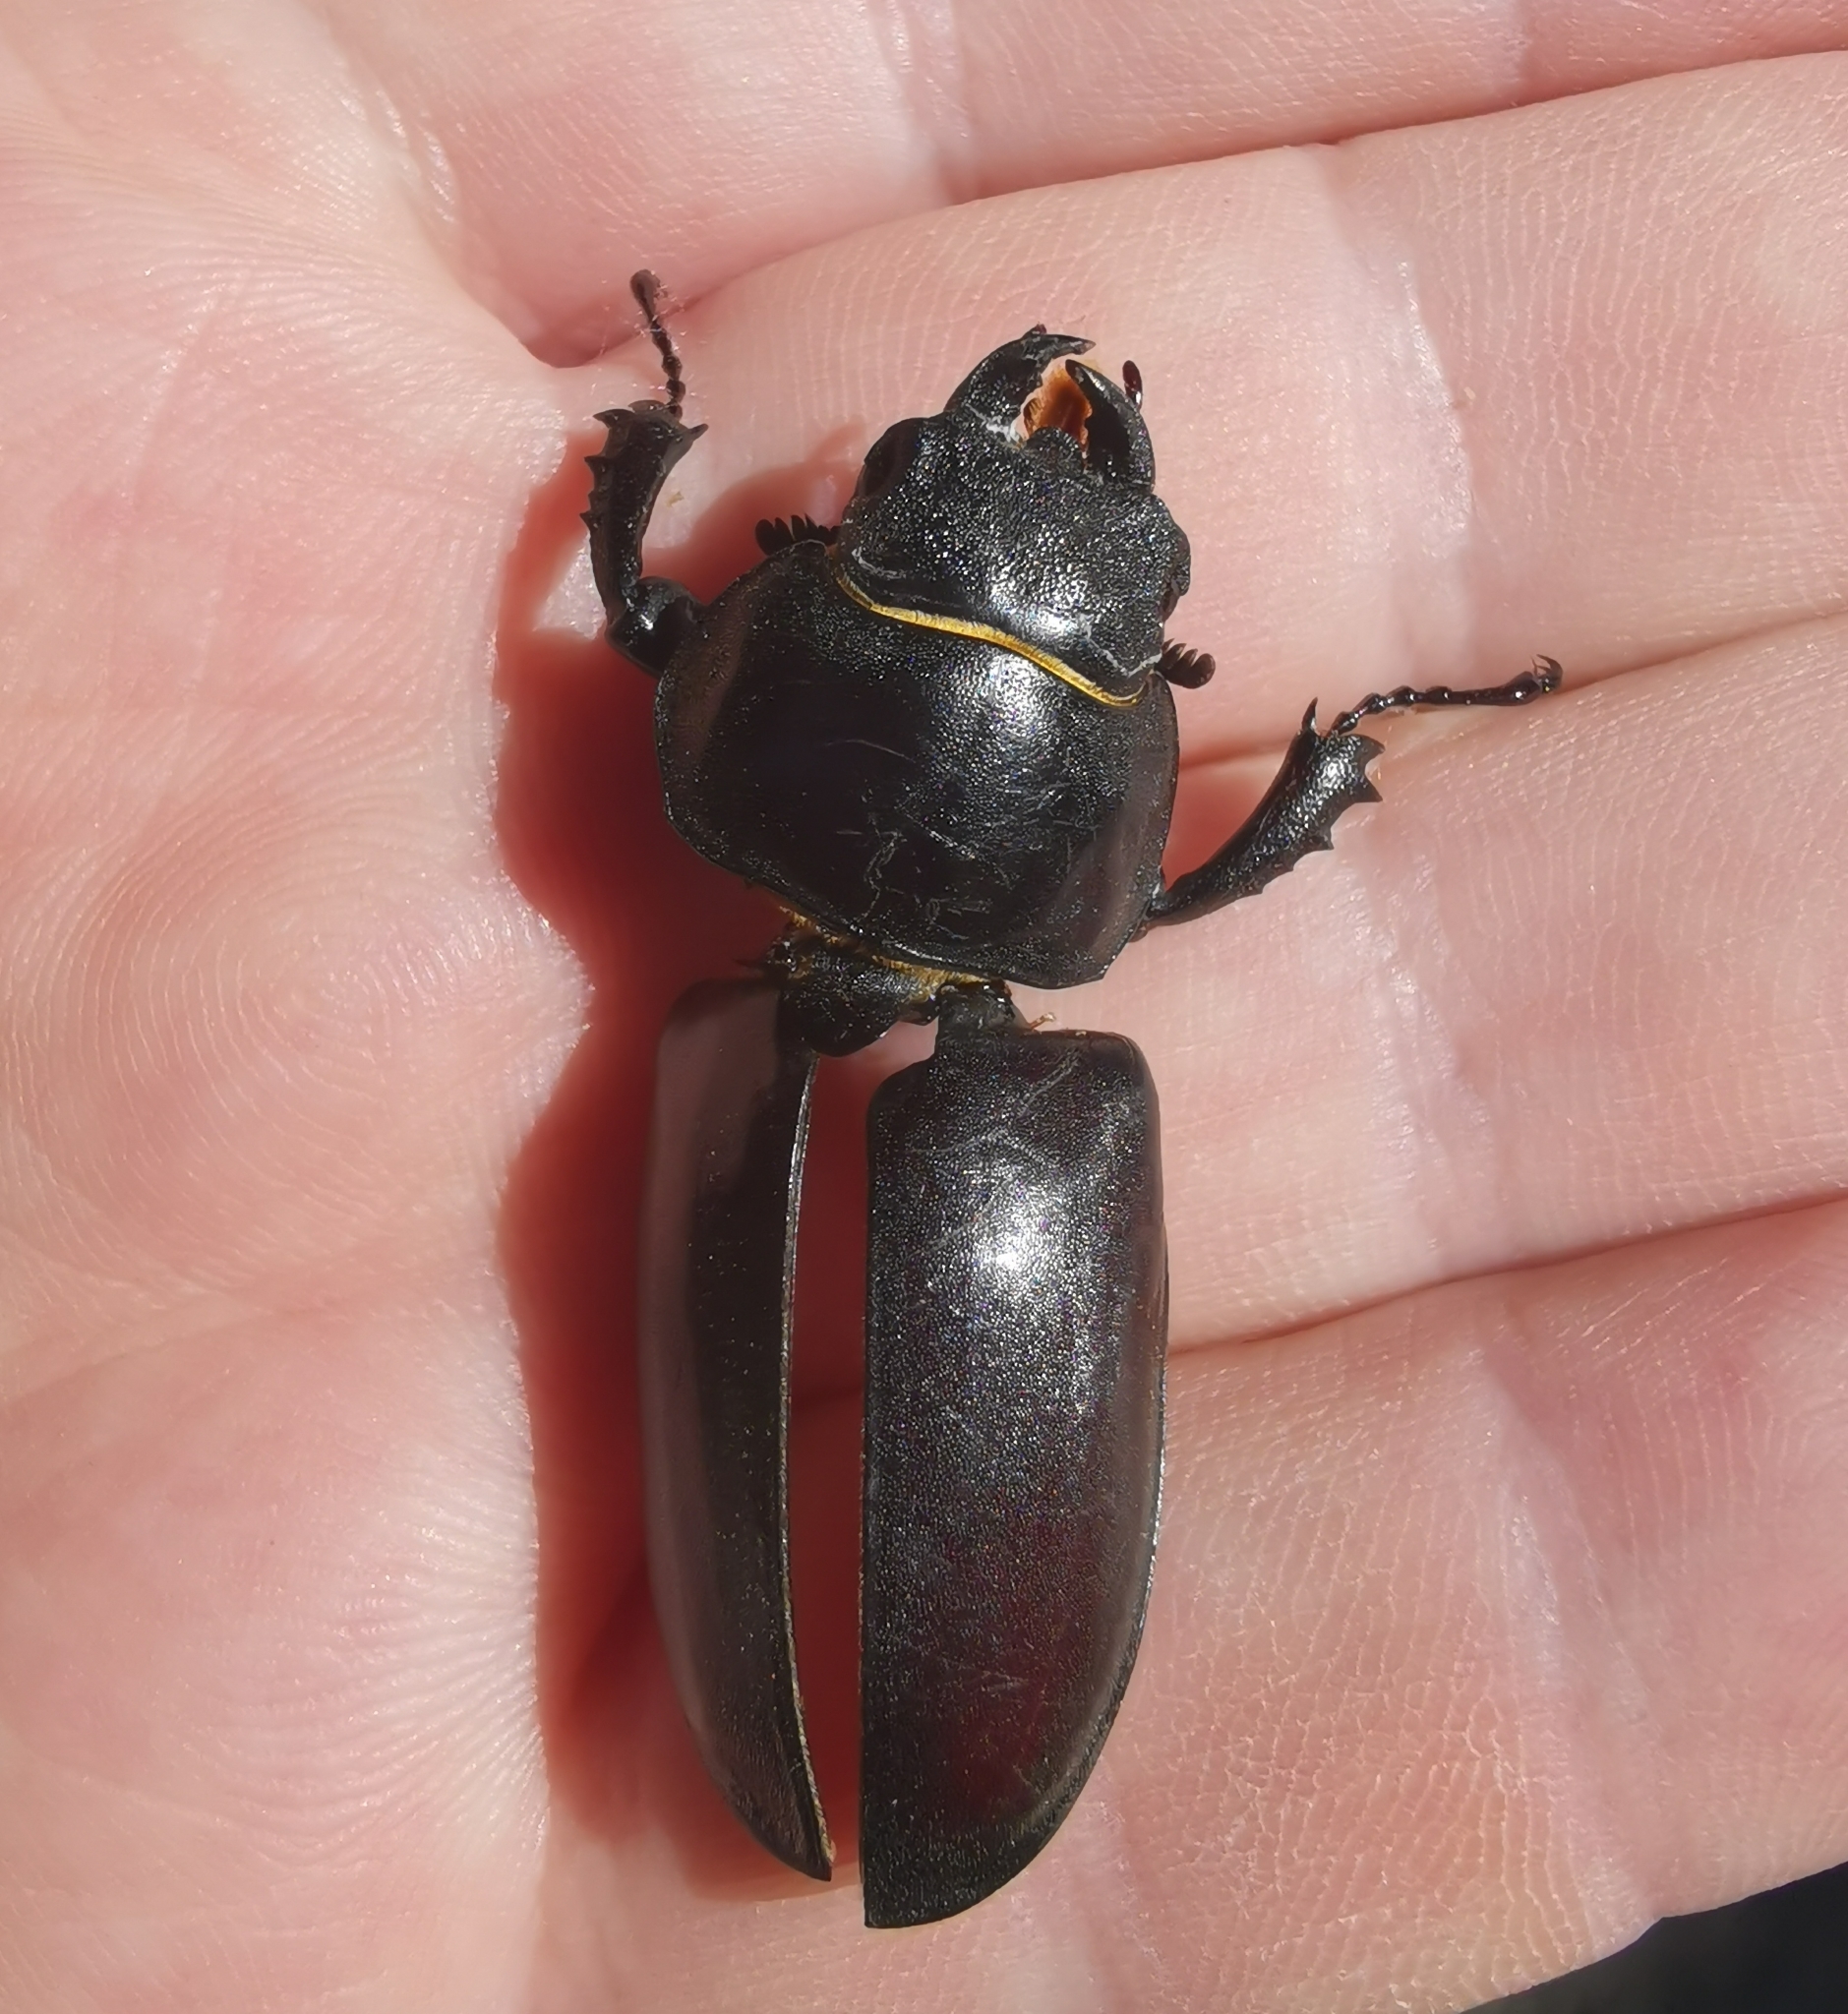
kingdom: Animalia
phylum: Arthropoda
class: Insecta
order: Coleoptera
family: Lucanidae
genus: Lucanus
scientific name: Lucanus cervus
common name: Stag beetle
